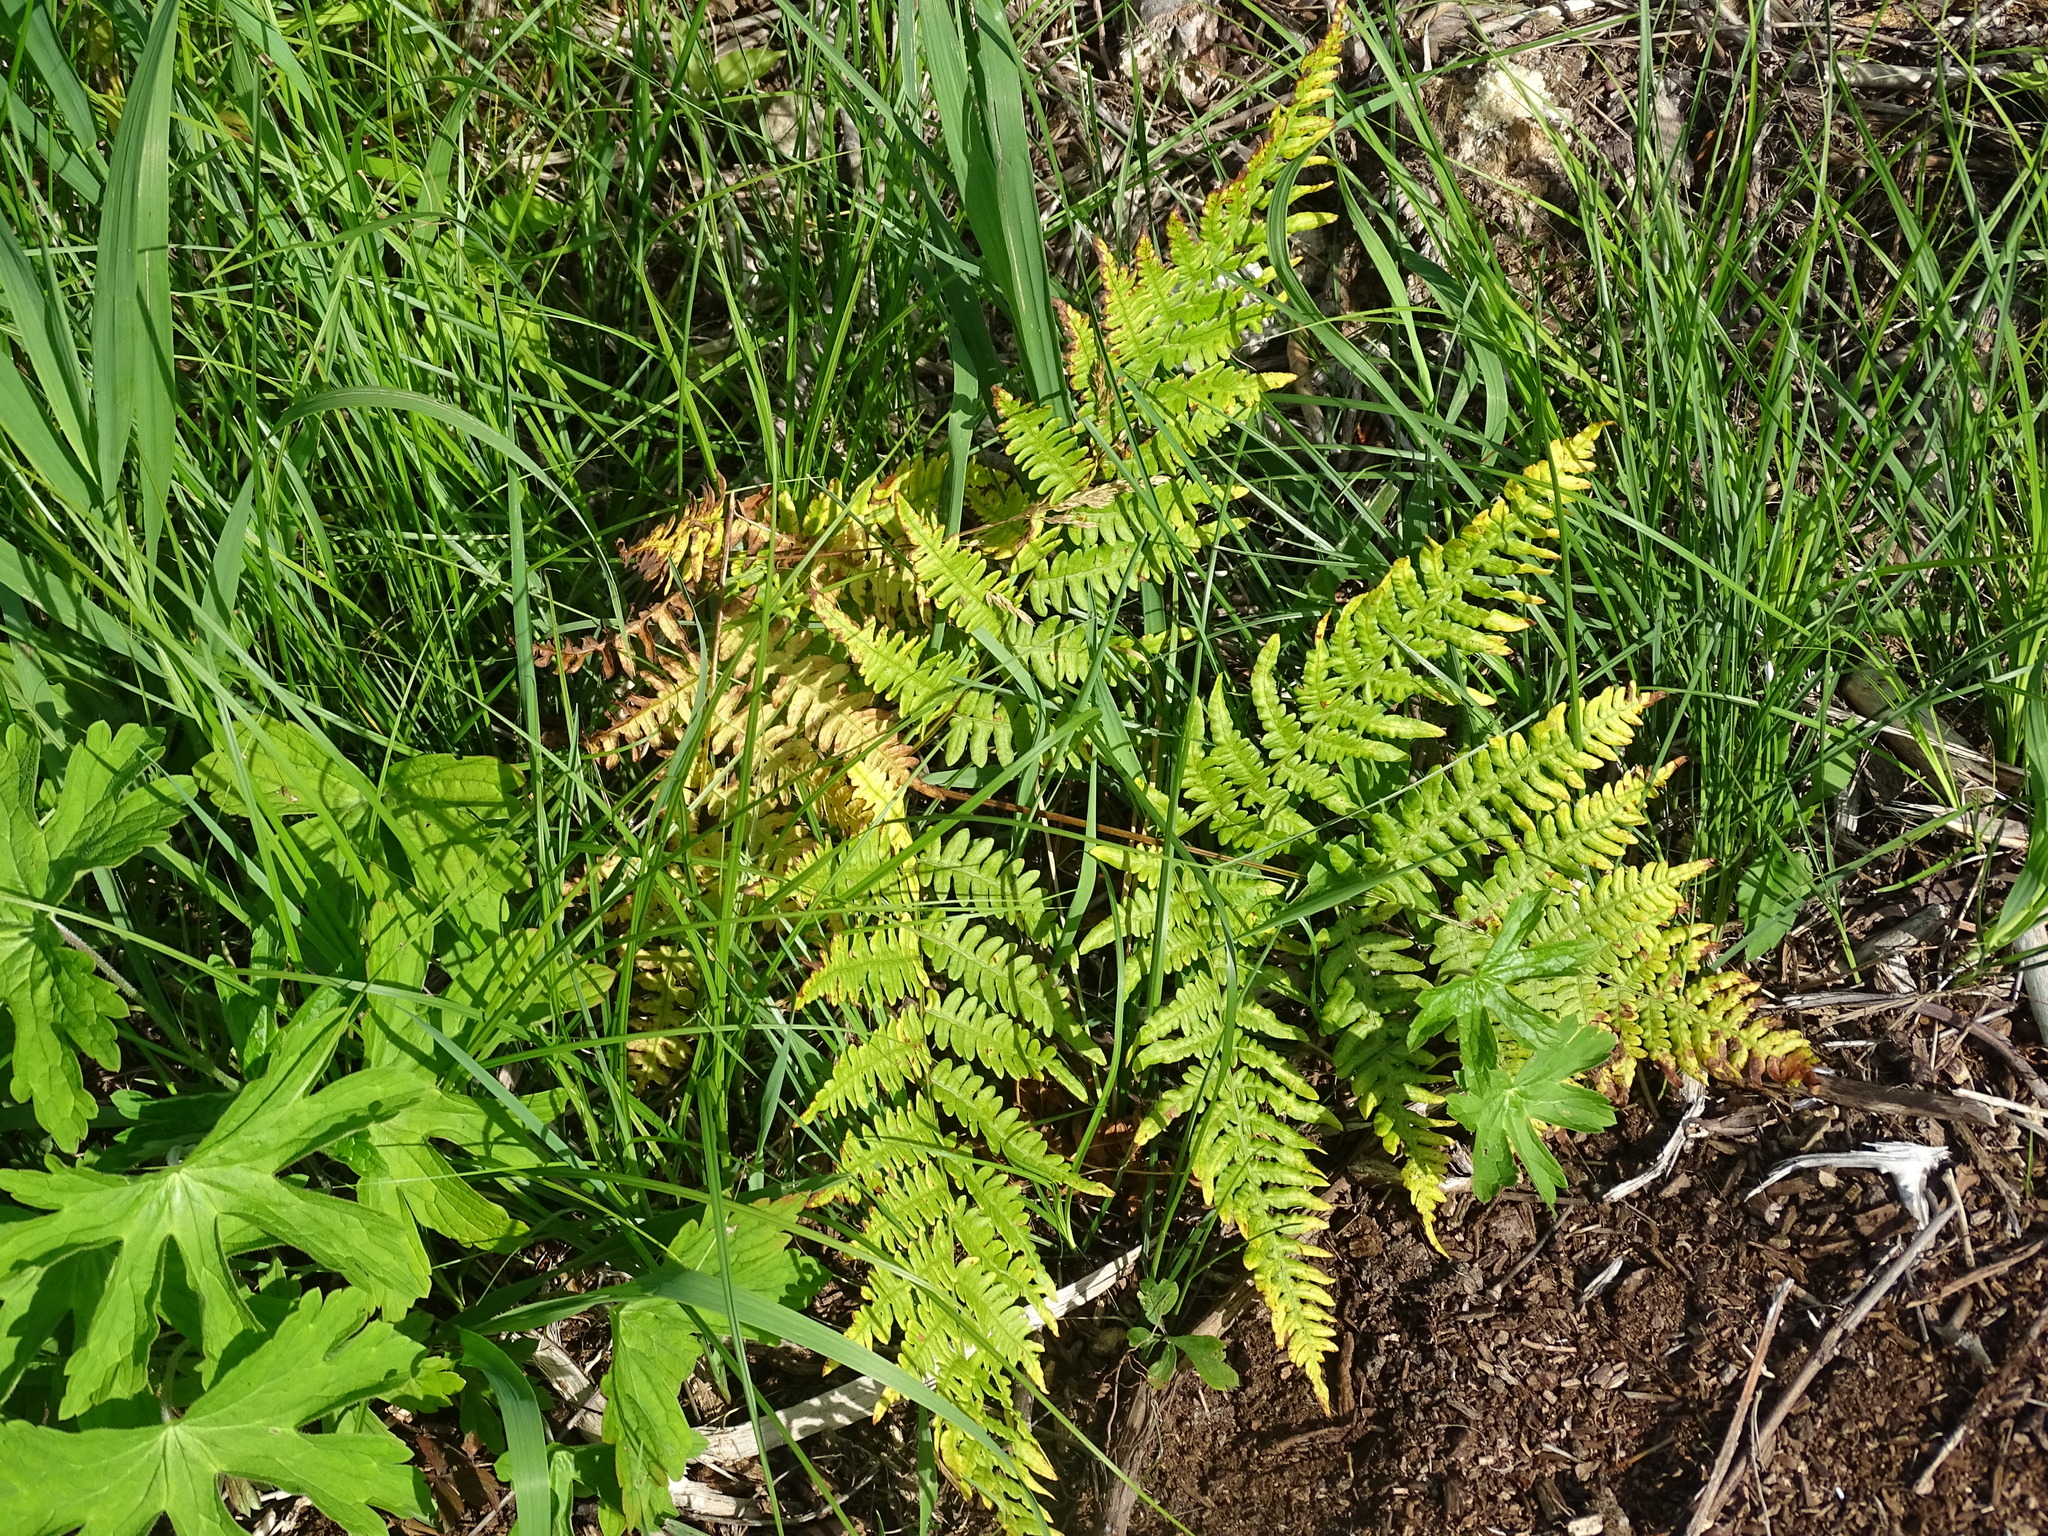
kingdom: Plantae
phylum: Tracheophyta
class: Polypodiopsida
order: Polypodiales
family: Dennstaedtiaceae
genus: Pteridium
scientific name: Pteridium aquilinum
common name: Bracken
